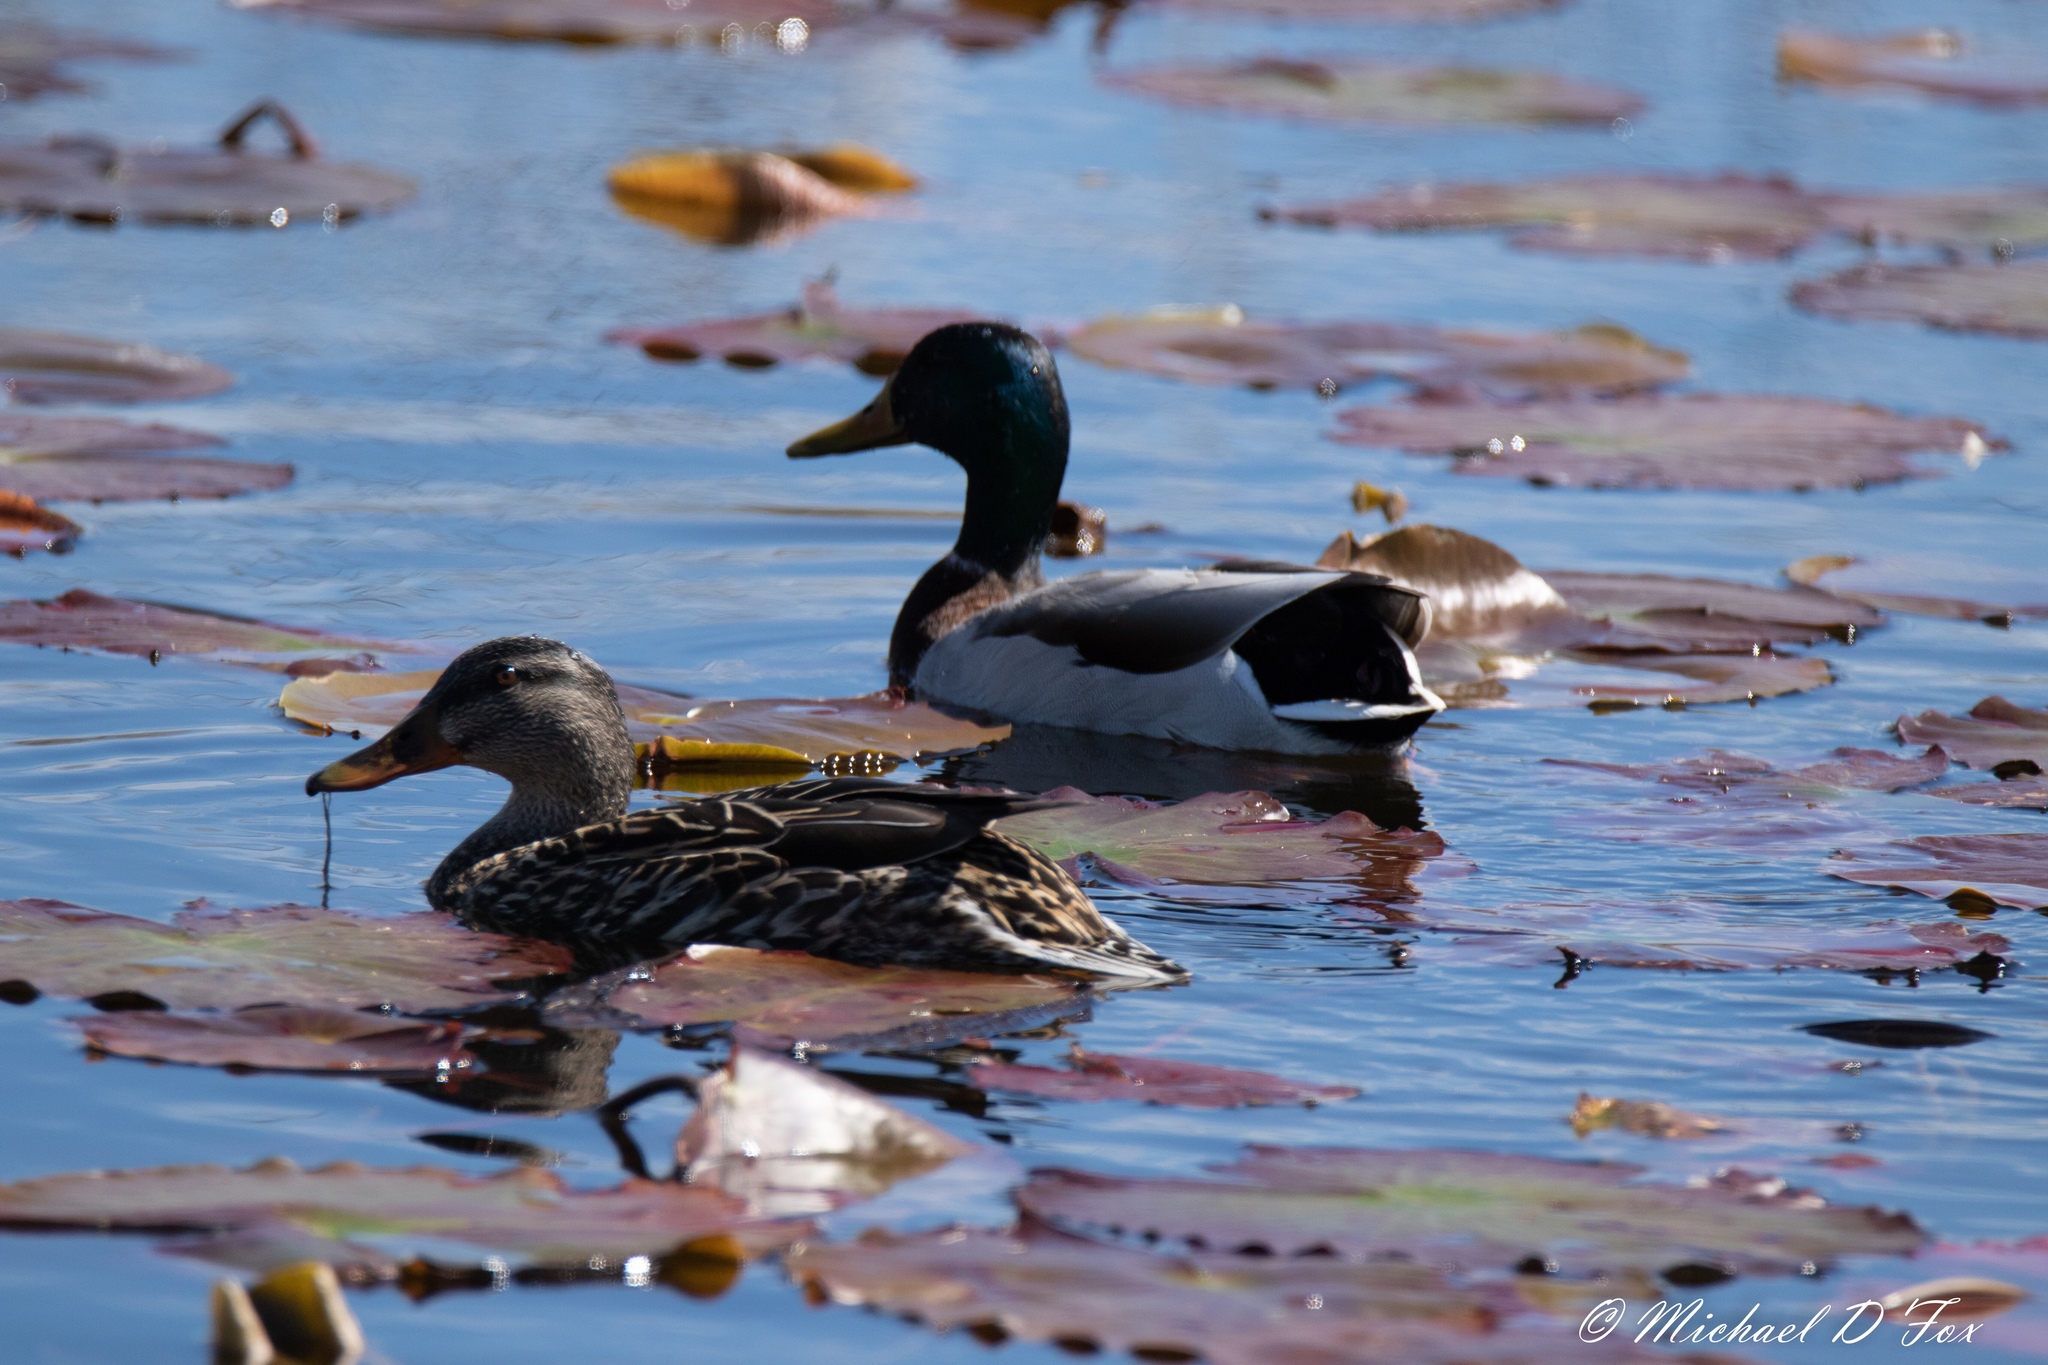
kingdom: Animalia
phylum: Chordata
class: Aves
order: Anseriformes
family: Anatidae
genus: Anas
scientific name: Anas platyrhynchos
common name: Mallard
